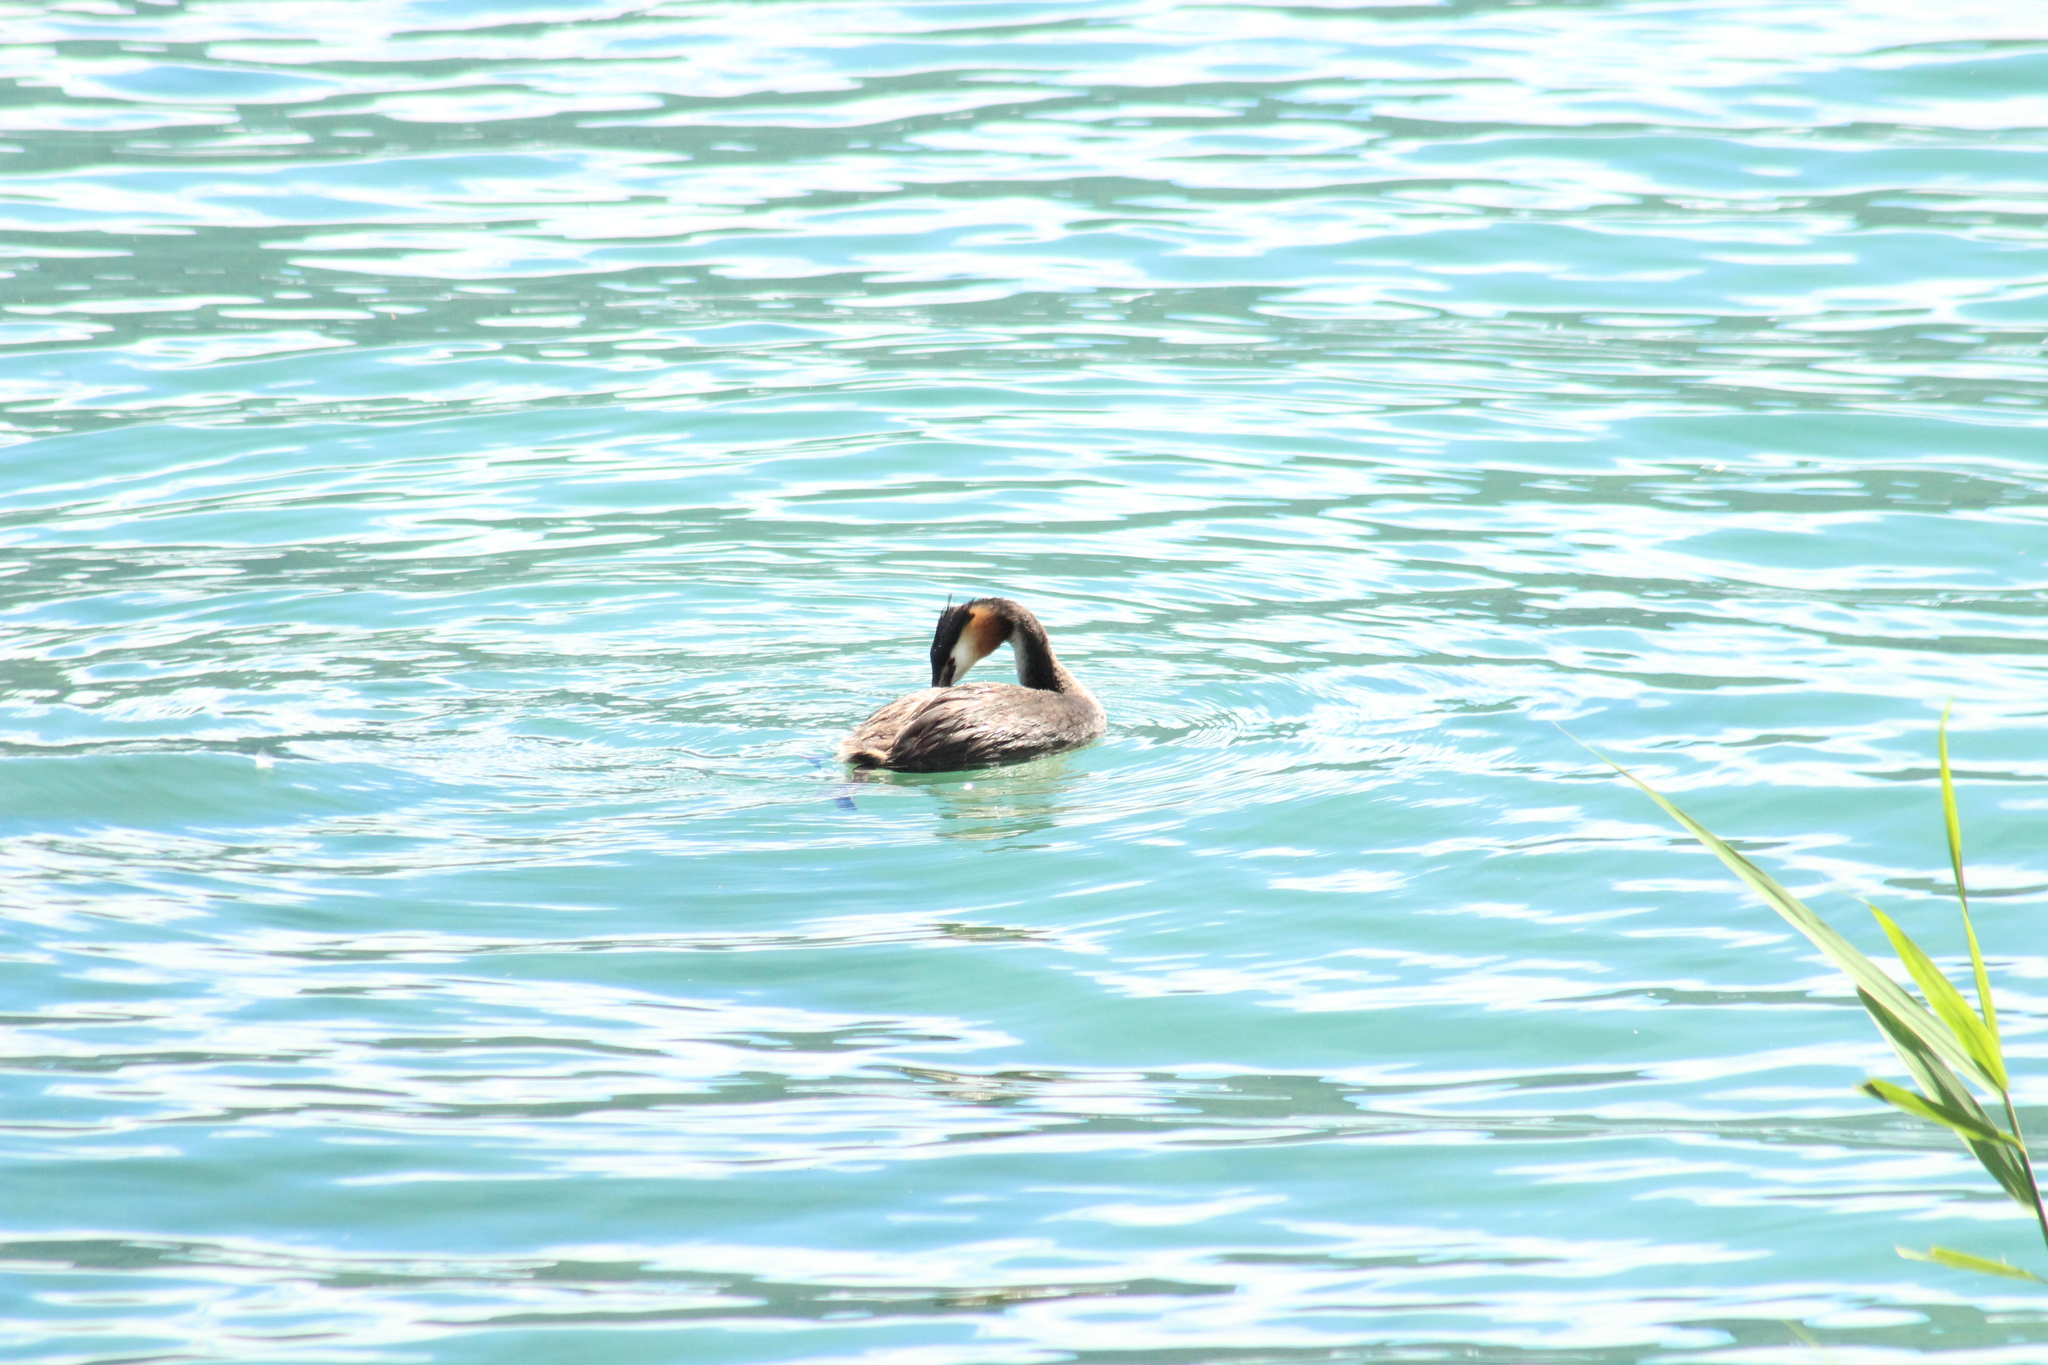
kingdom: Animalia
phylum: Chordata
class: Aves
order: Podicipediformes
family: Podicipedidae
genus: Podiceps
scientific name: Podiceps cristatus
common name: Great crested grebe
